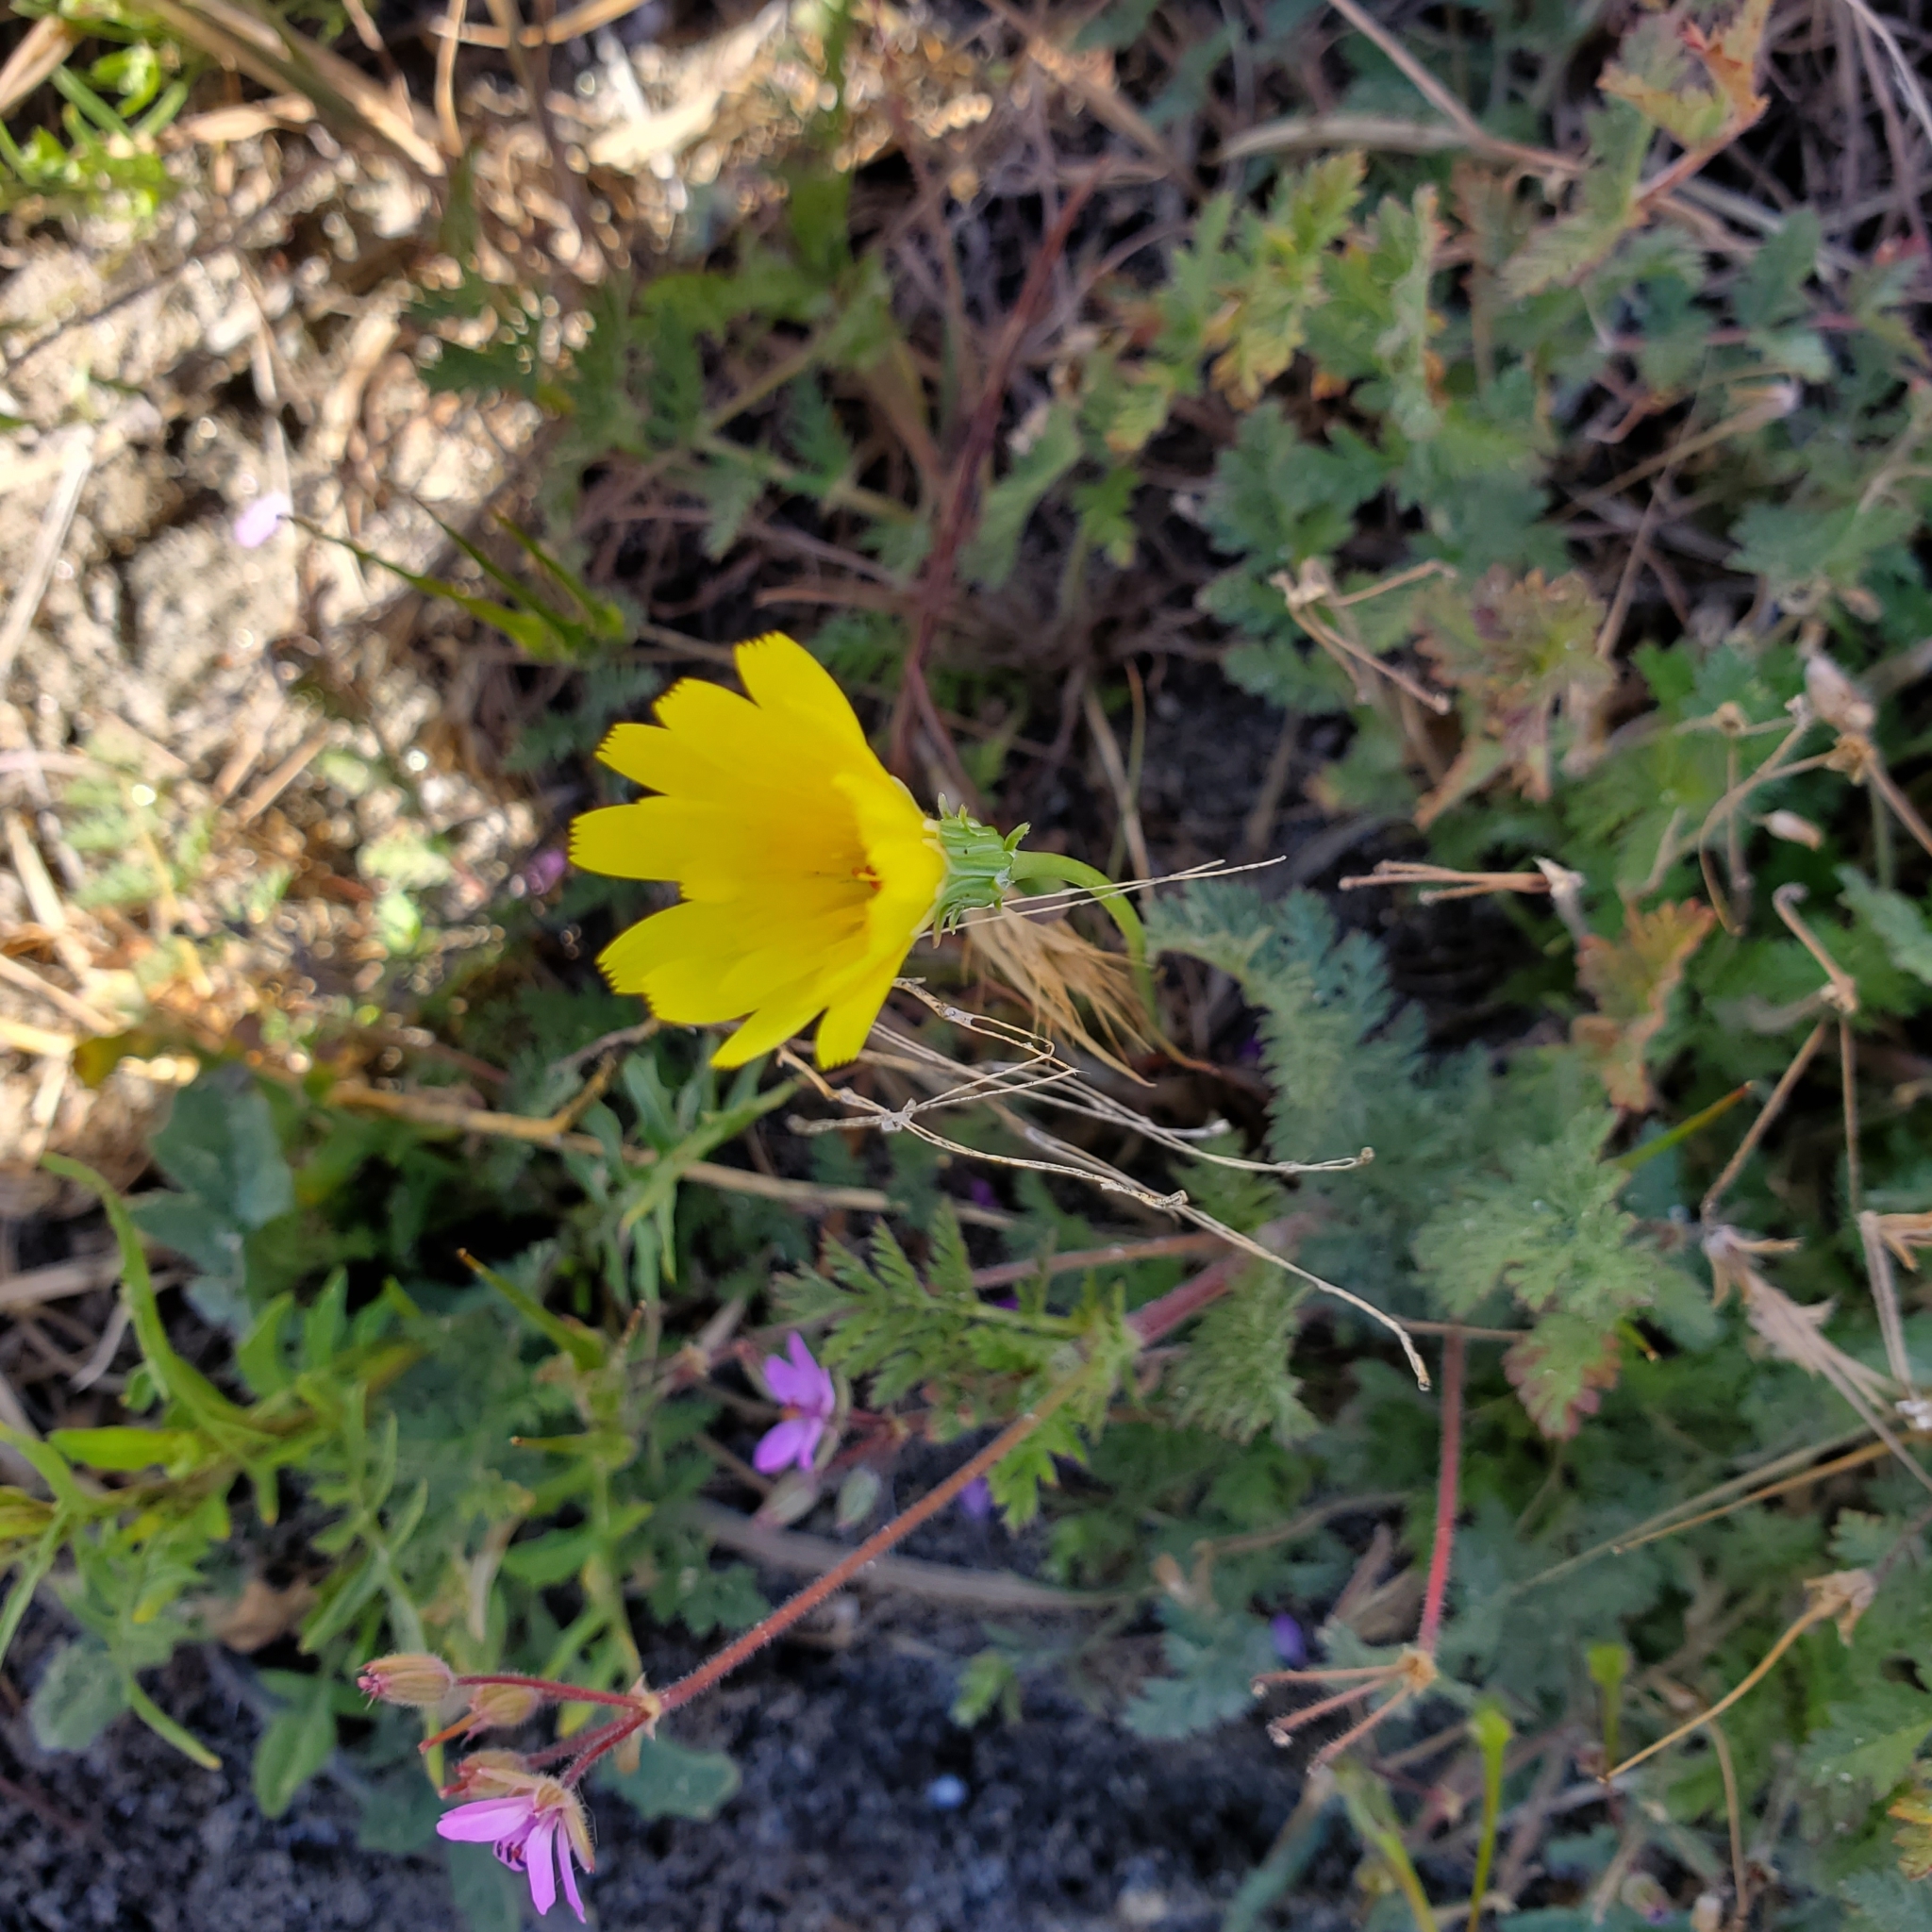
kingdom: Plantae
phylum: Tracheophyta
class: Magnoliopsida
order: Asterales
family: Asteraceae
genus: Malacothrix
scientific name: Malacothrix glabrata
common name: Smooth desert-dandelion
